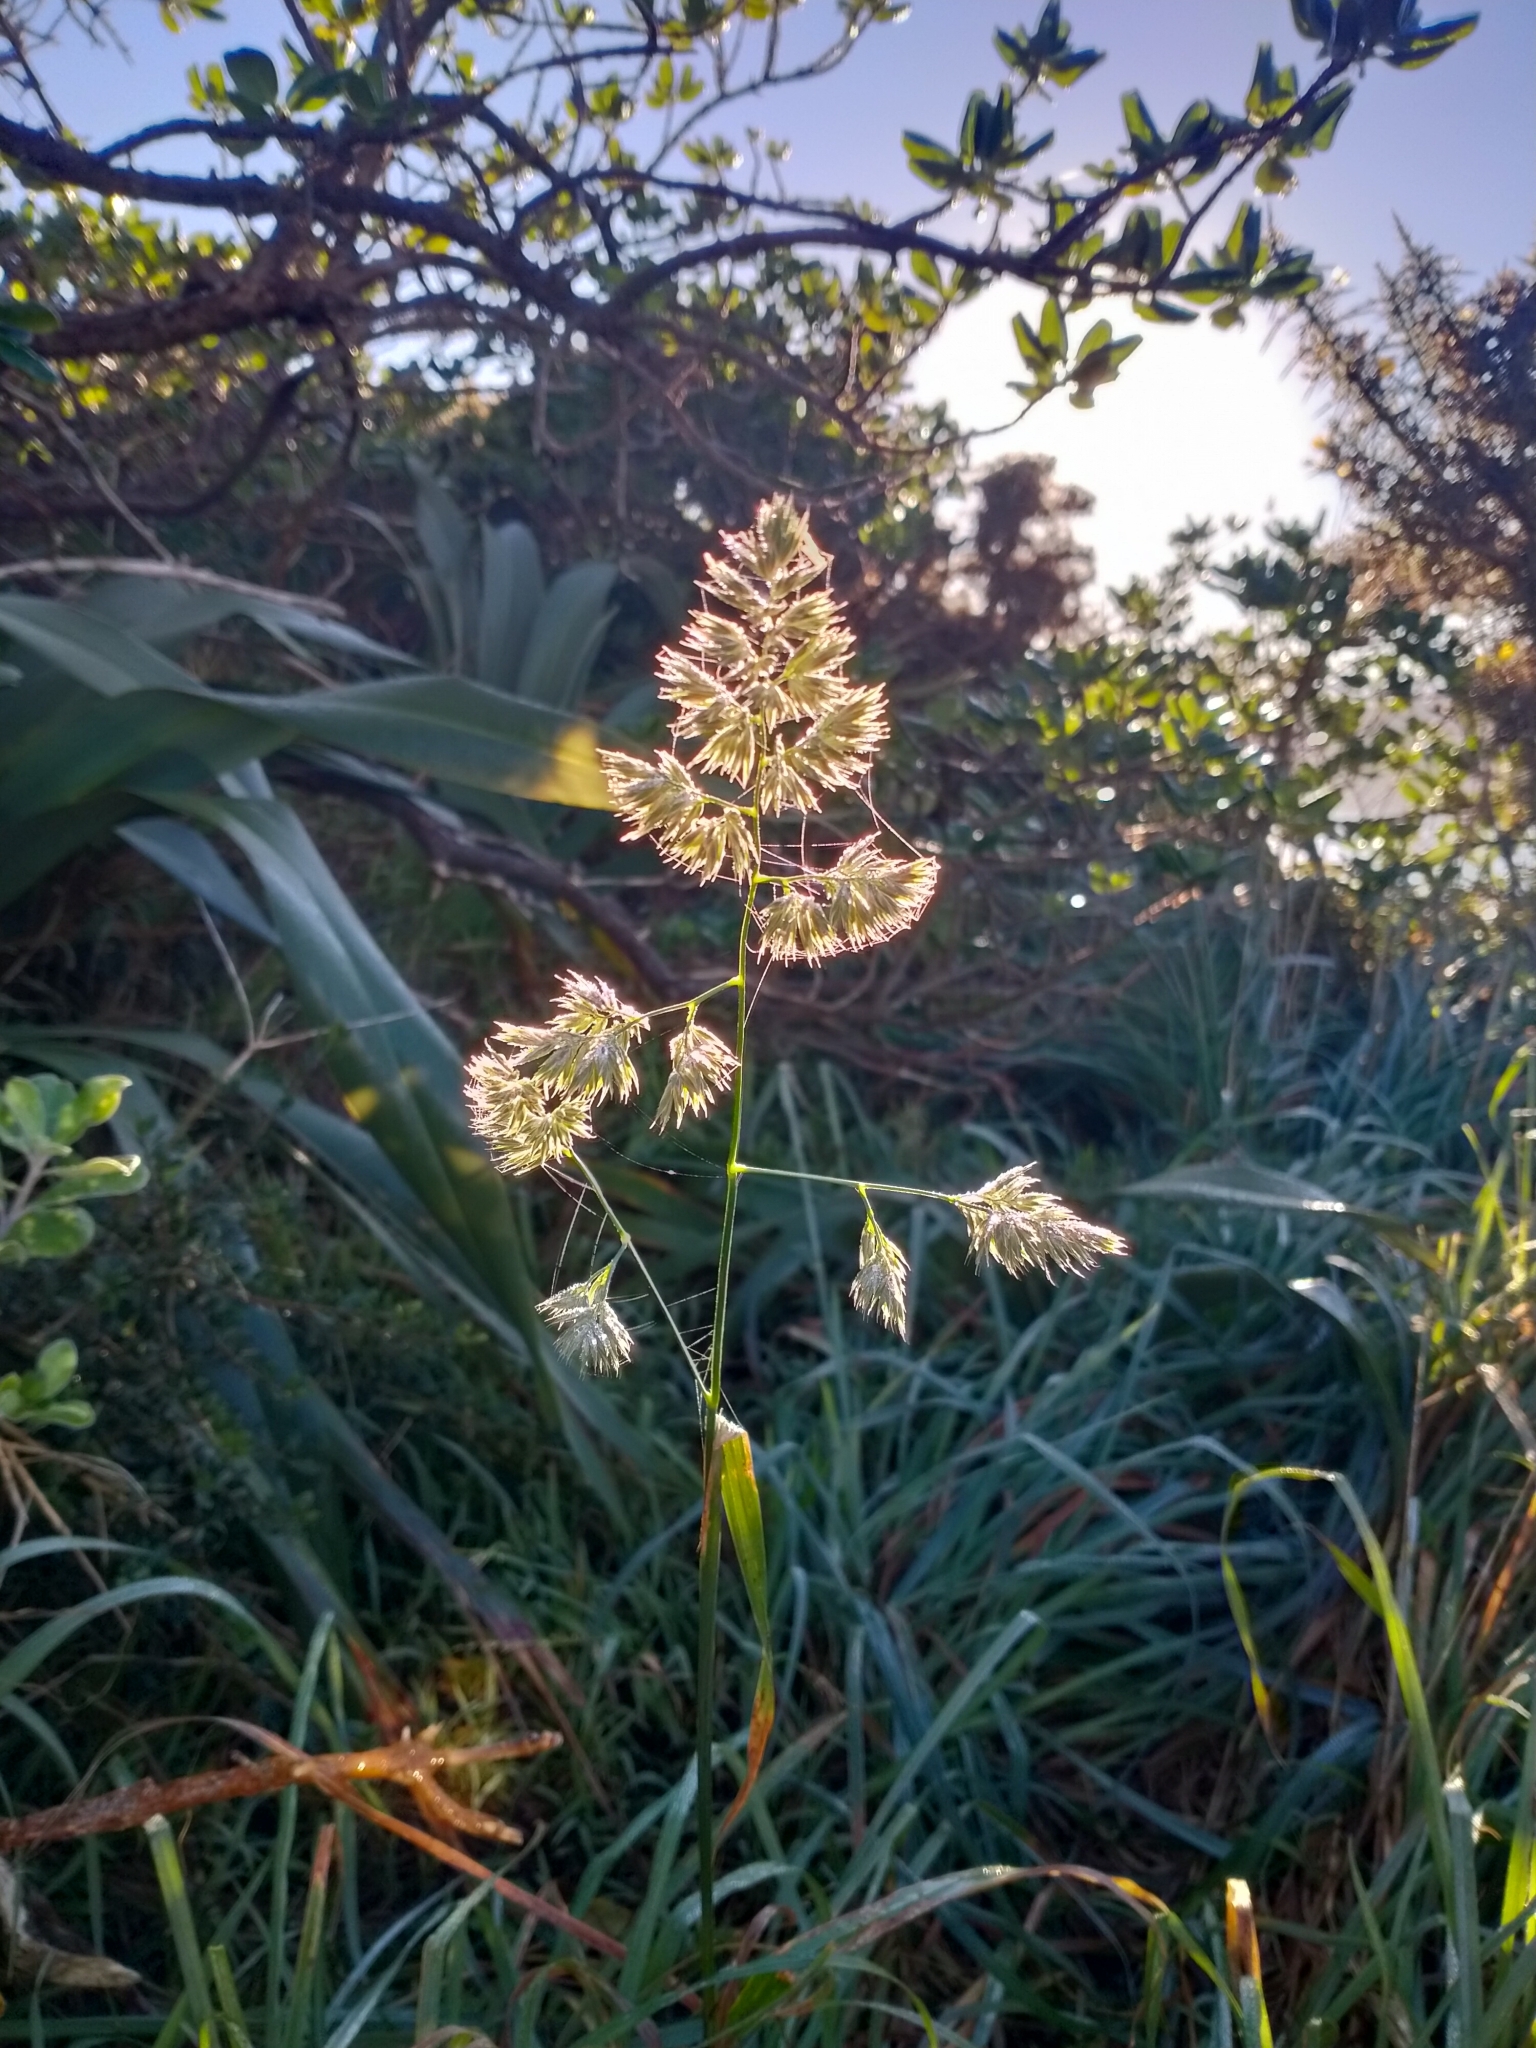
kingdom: Plantae
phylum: Tracheophyta
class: Liliopsida
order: Poales
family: Poaceae
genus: Dactylis
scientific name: Dactylis glomerata
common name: Orchardgrass
